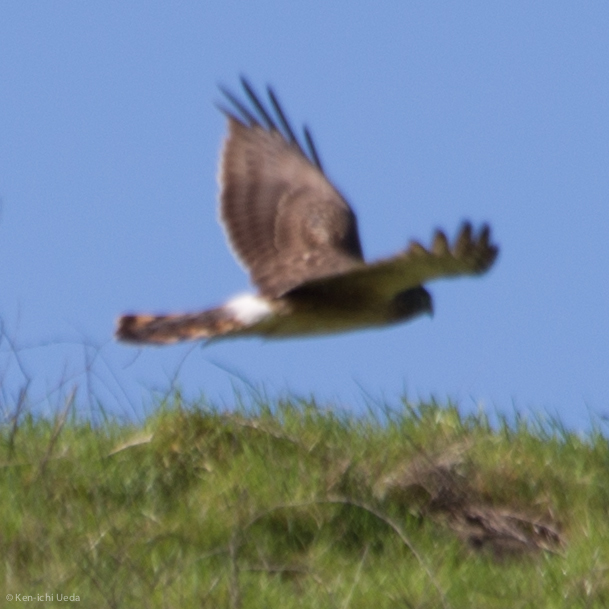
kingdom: Animalia
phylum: Chordata
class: Aves
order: Accipitriformes
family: Accipitridae
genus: Circus
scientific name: Circus cyaneus
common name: Hen harrier
